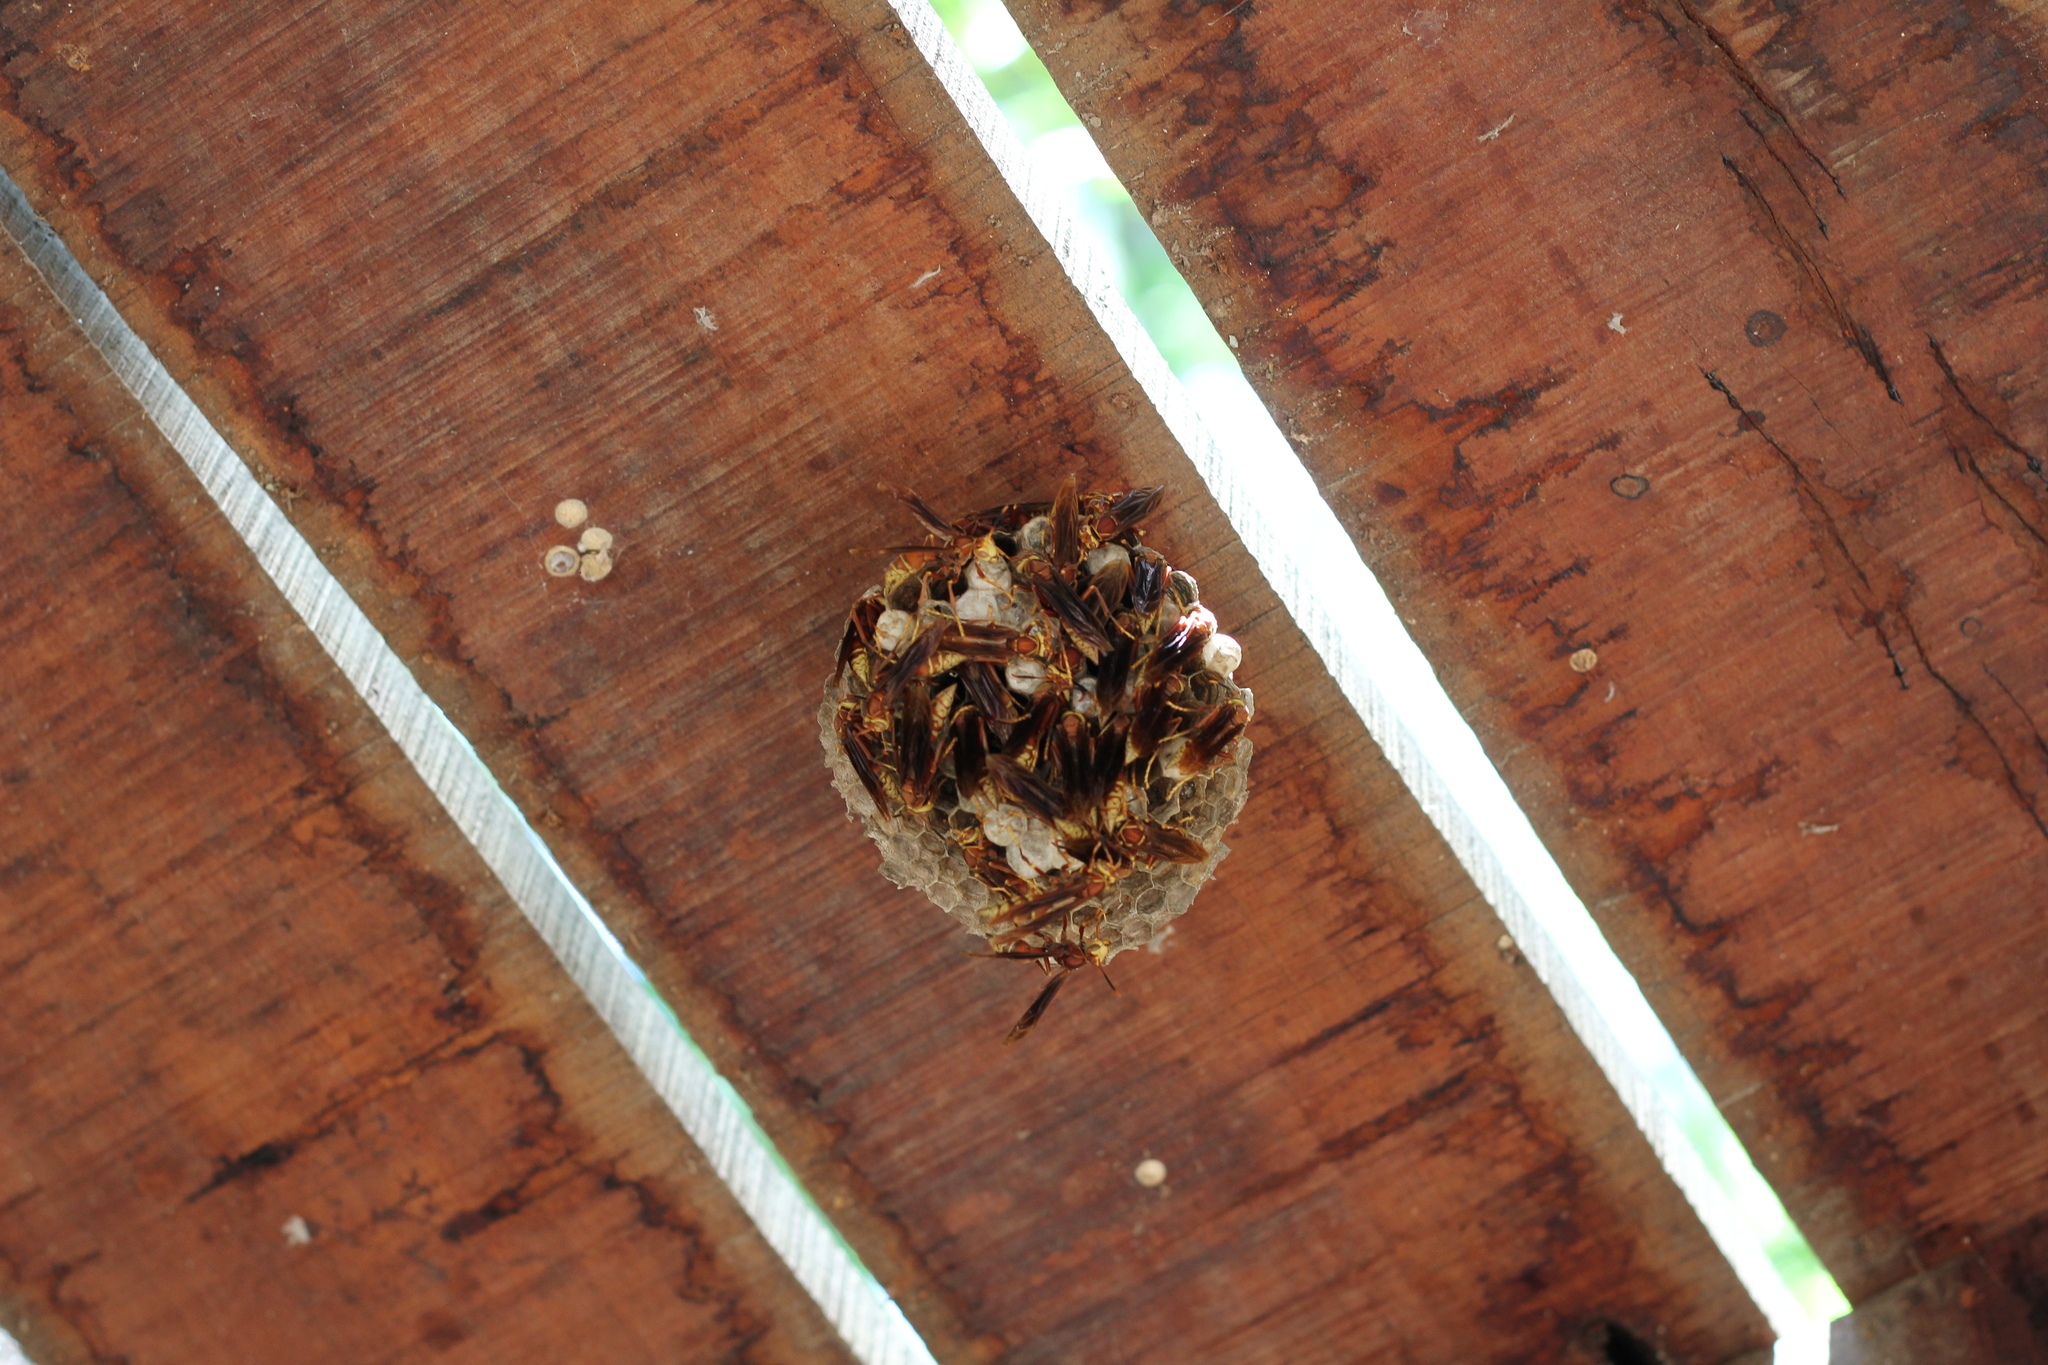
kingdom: Animalia
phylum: Arthropoda
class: Insecta
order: Hymenoptera
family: Eumenidae
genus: Polistes
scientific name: Polistes cavapyta
